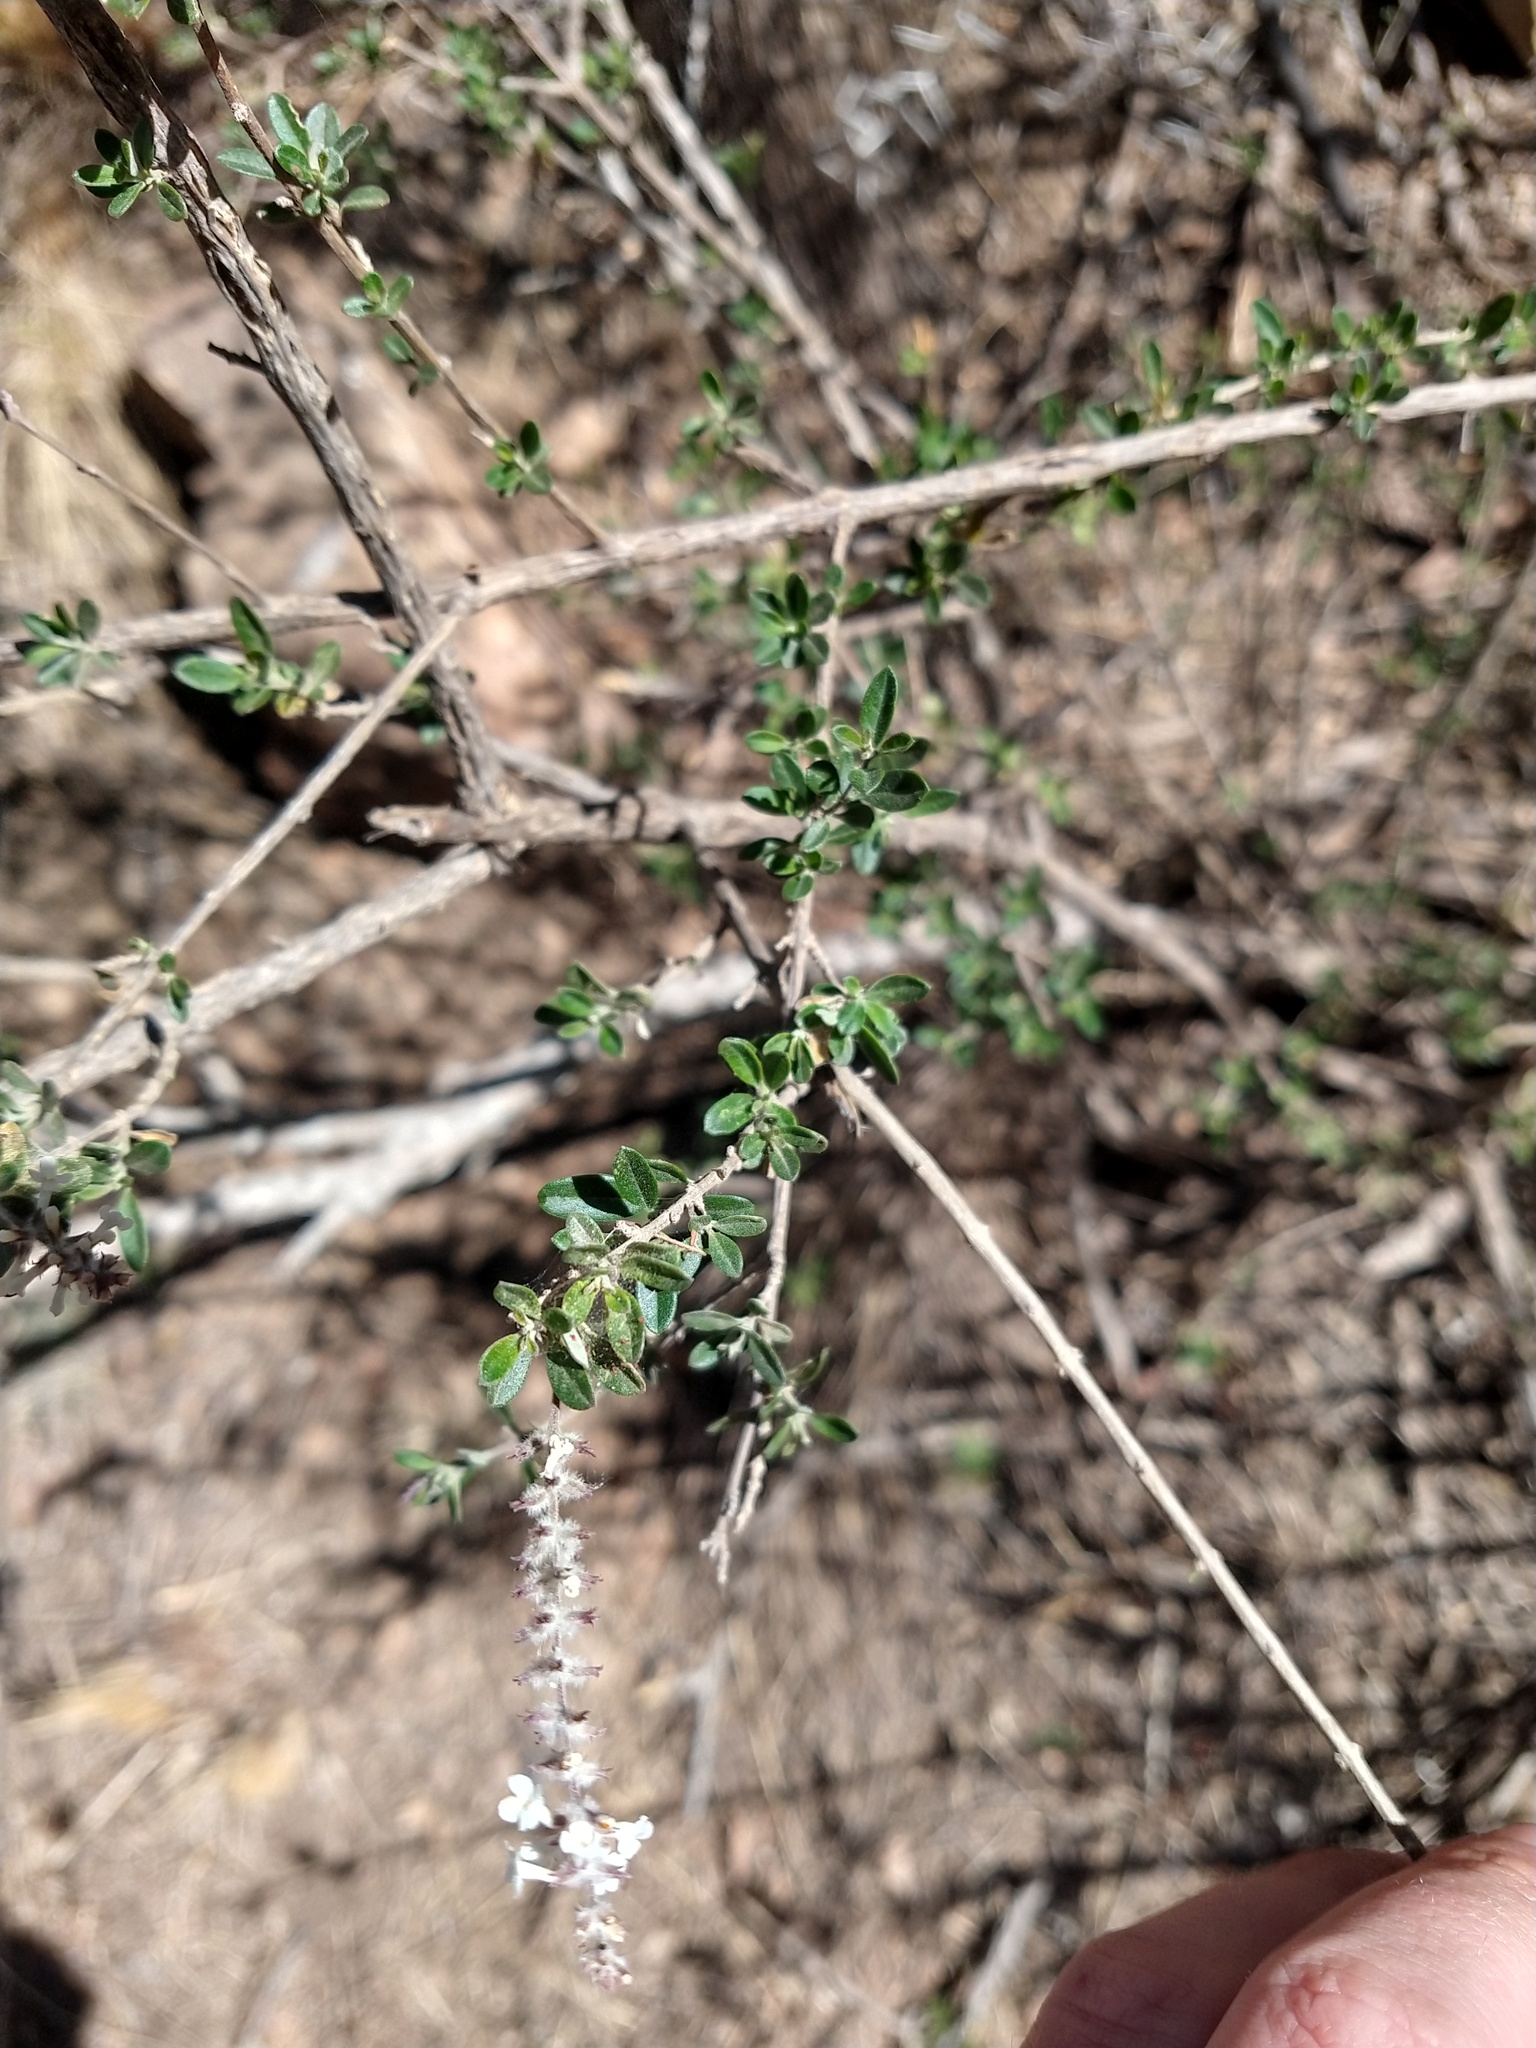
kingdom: Plantae
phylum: Tracheophyta
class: Magnoliopsida
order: Lamiales
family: Verbenaceae
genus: Aloysia
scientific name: Aloysia gratissima
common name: Common bee-brush
